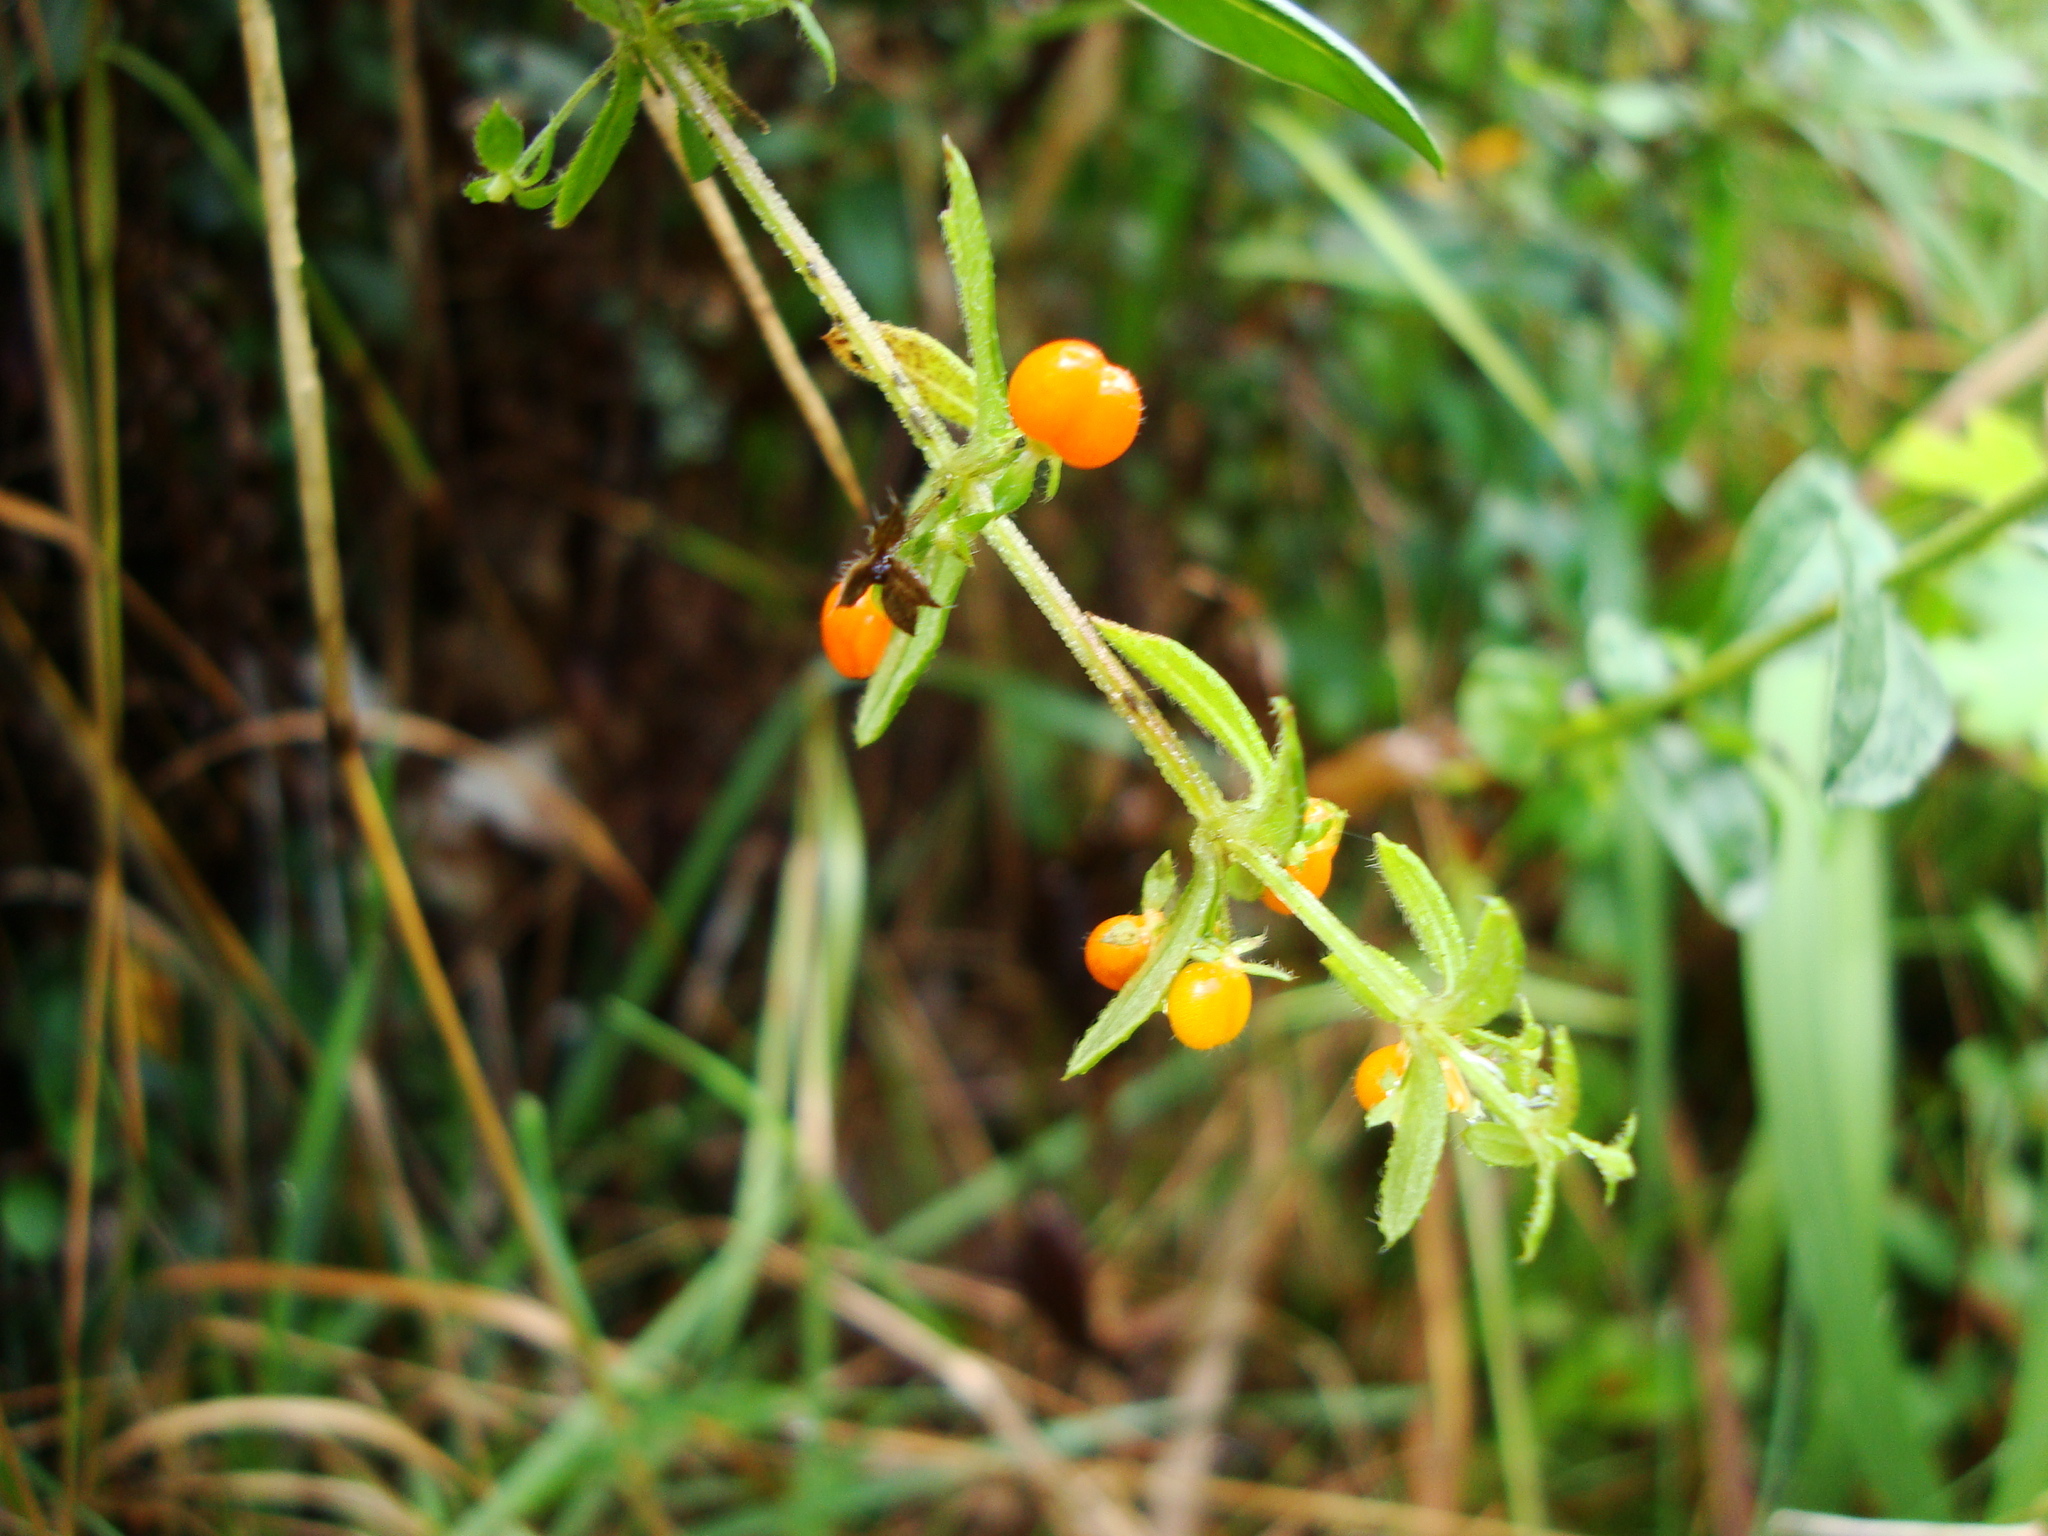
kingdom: Plantae
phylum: Tracheophyta
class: Magnoliopsida
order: Gentianales
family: Rubiaceae
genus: Galium
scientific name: Galium hypocarpium
